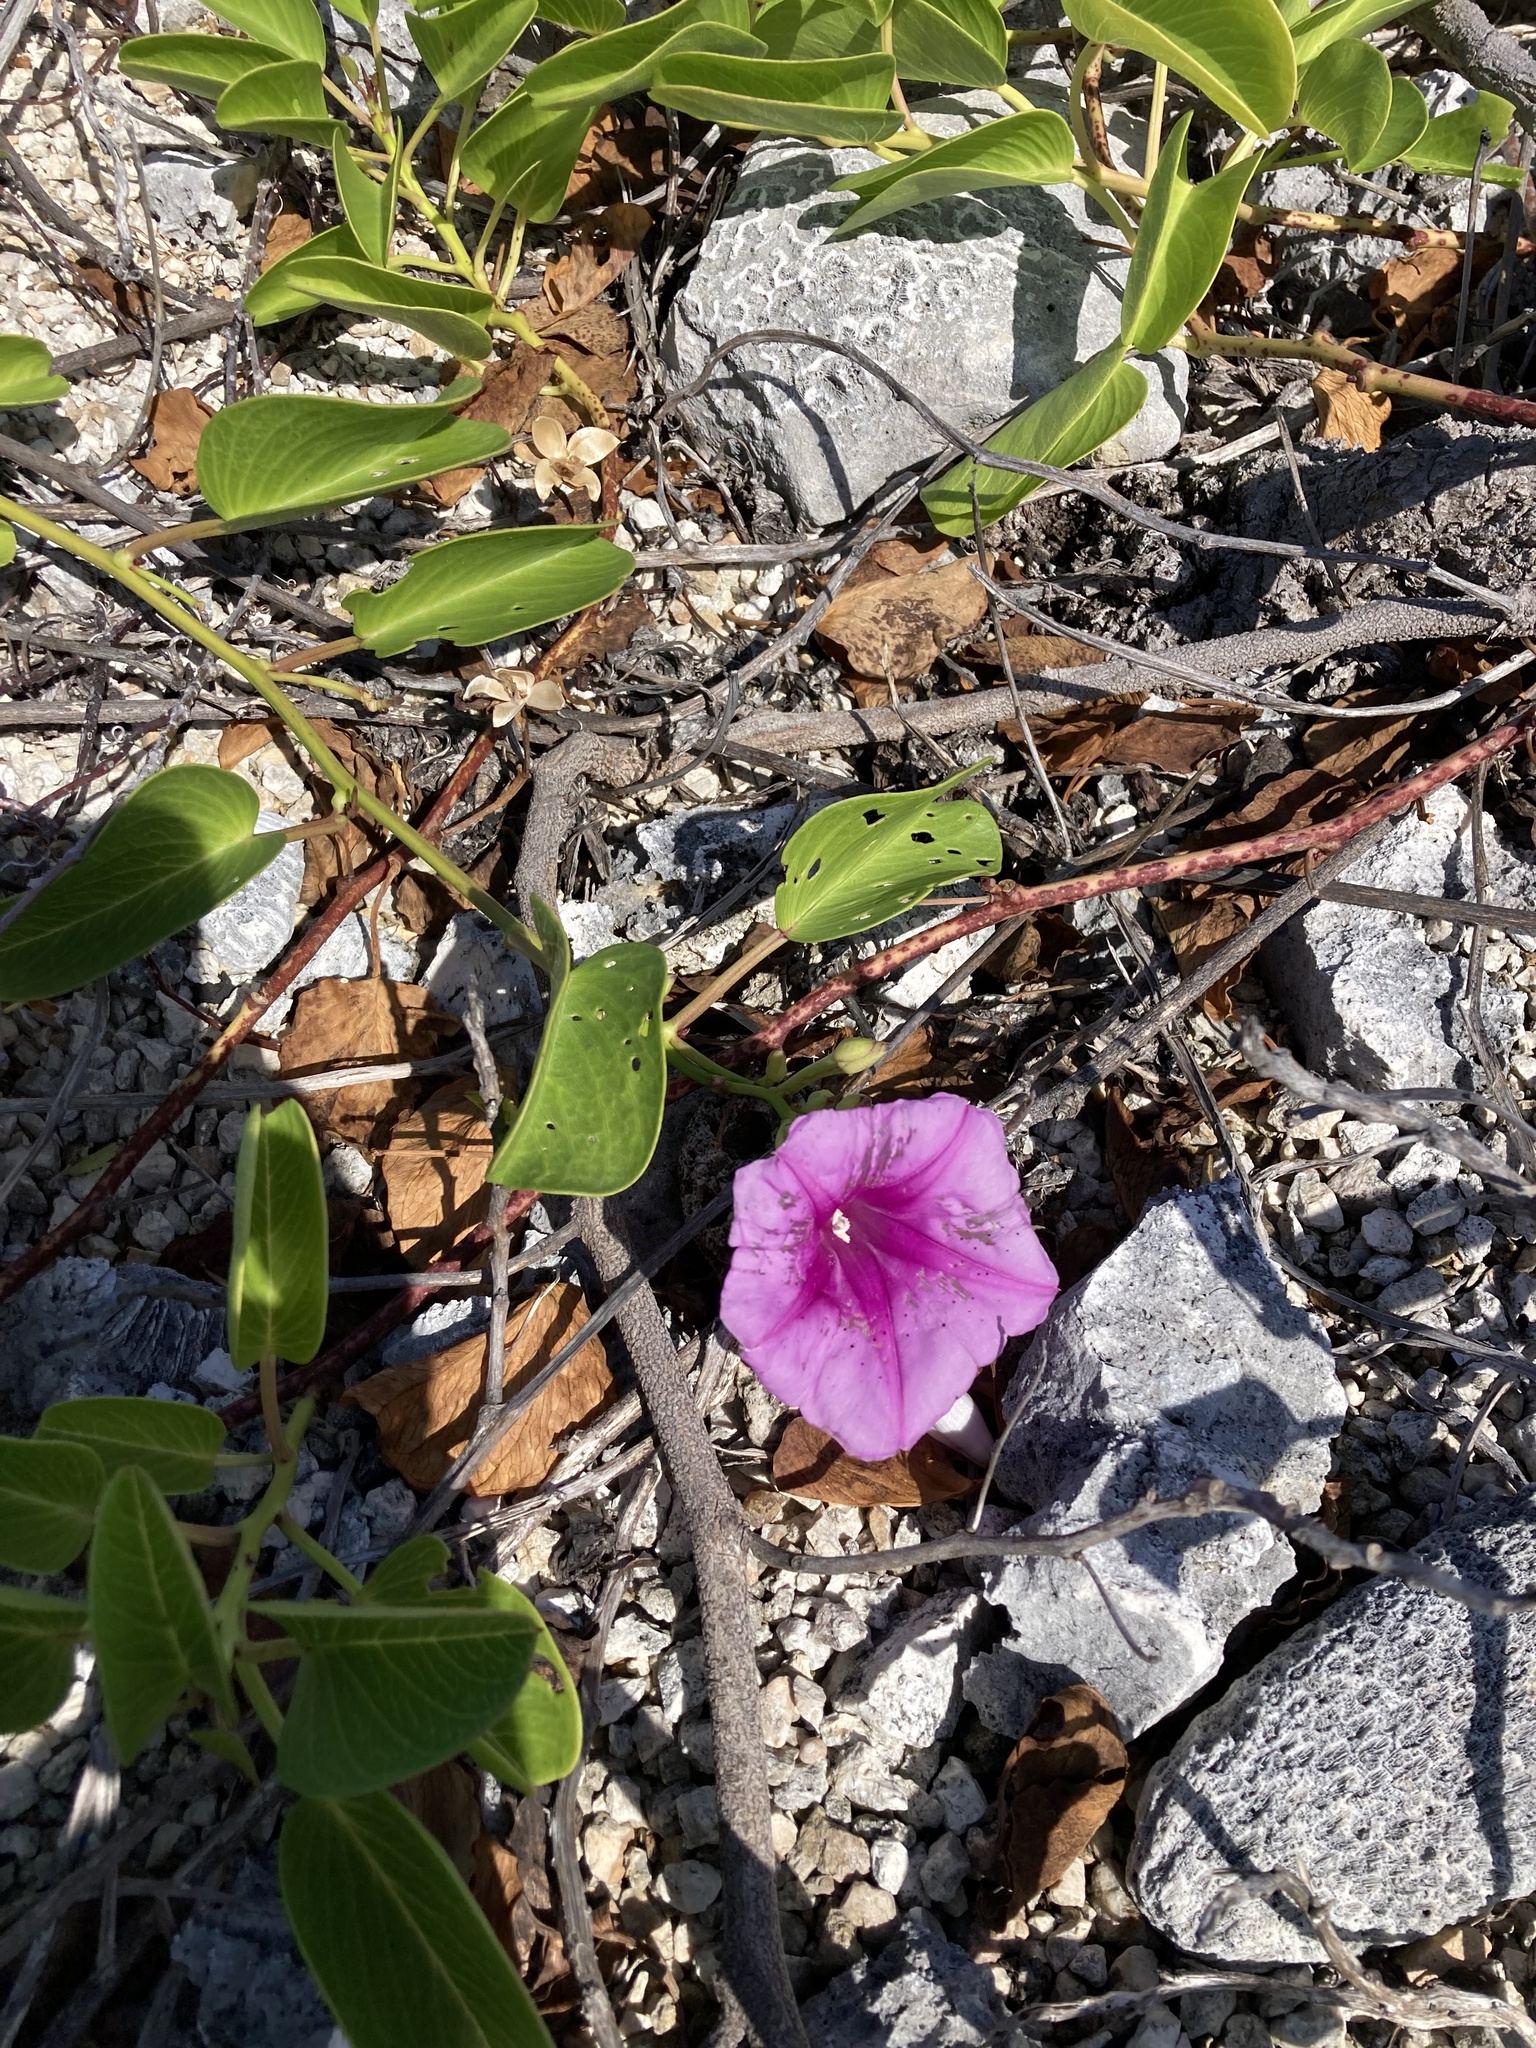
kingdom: Plantae
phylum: Tracheophyta
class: Magnoliopsida
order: Solanales
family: Convolvulaceae
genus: Ipomoea
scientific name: Ipomoea pes-caprae
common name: Beach morning glory
